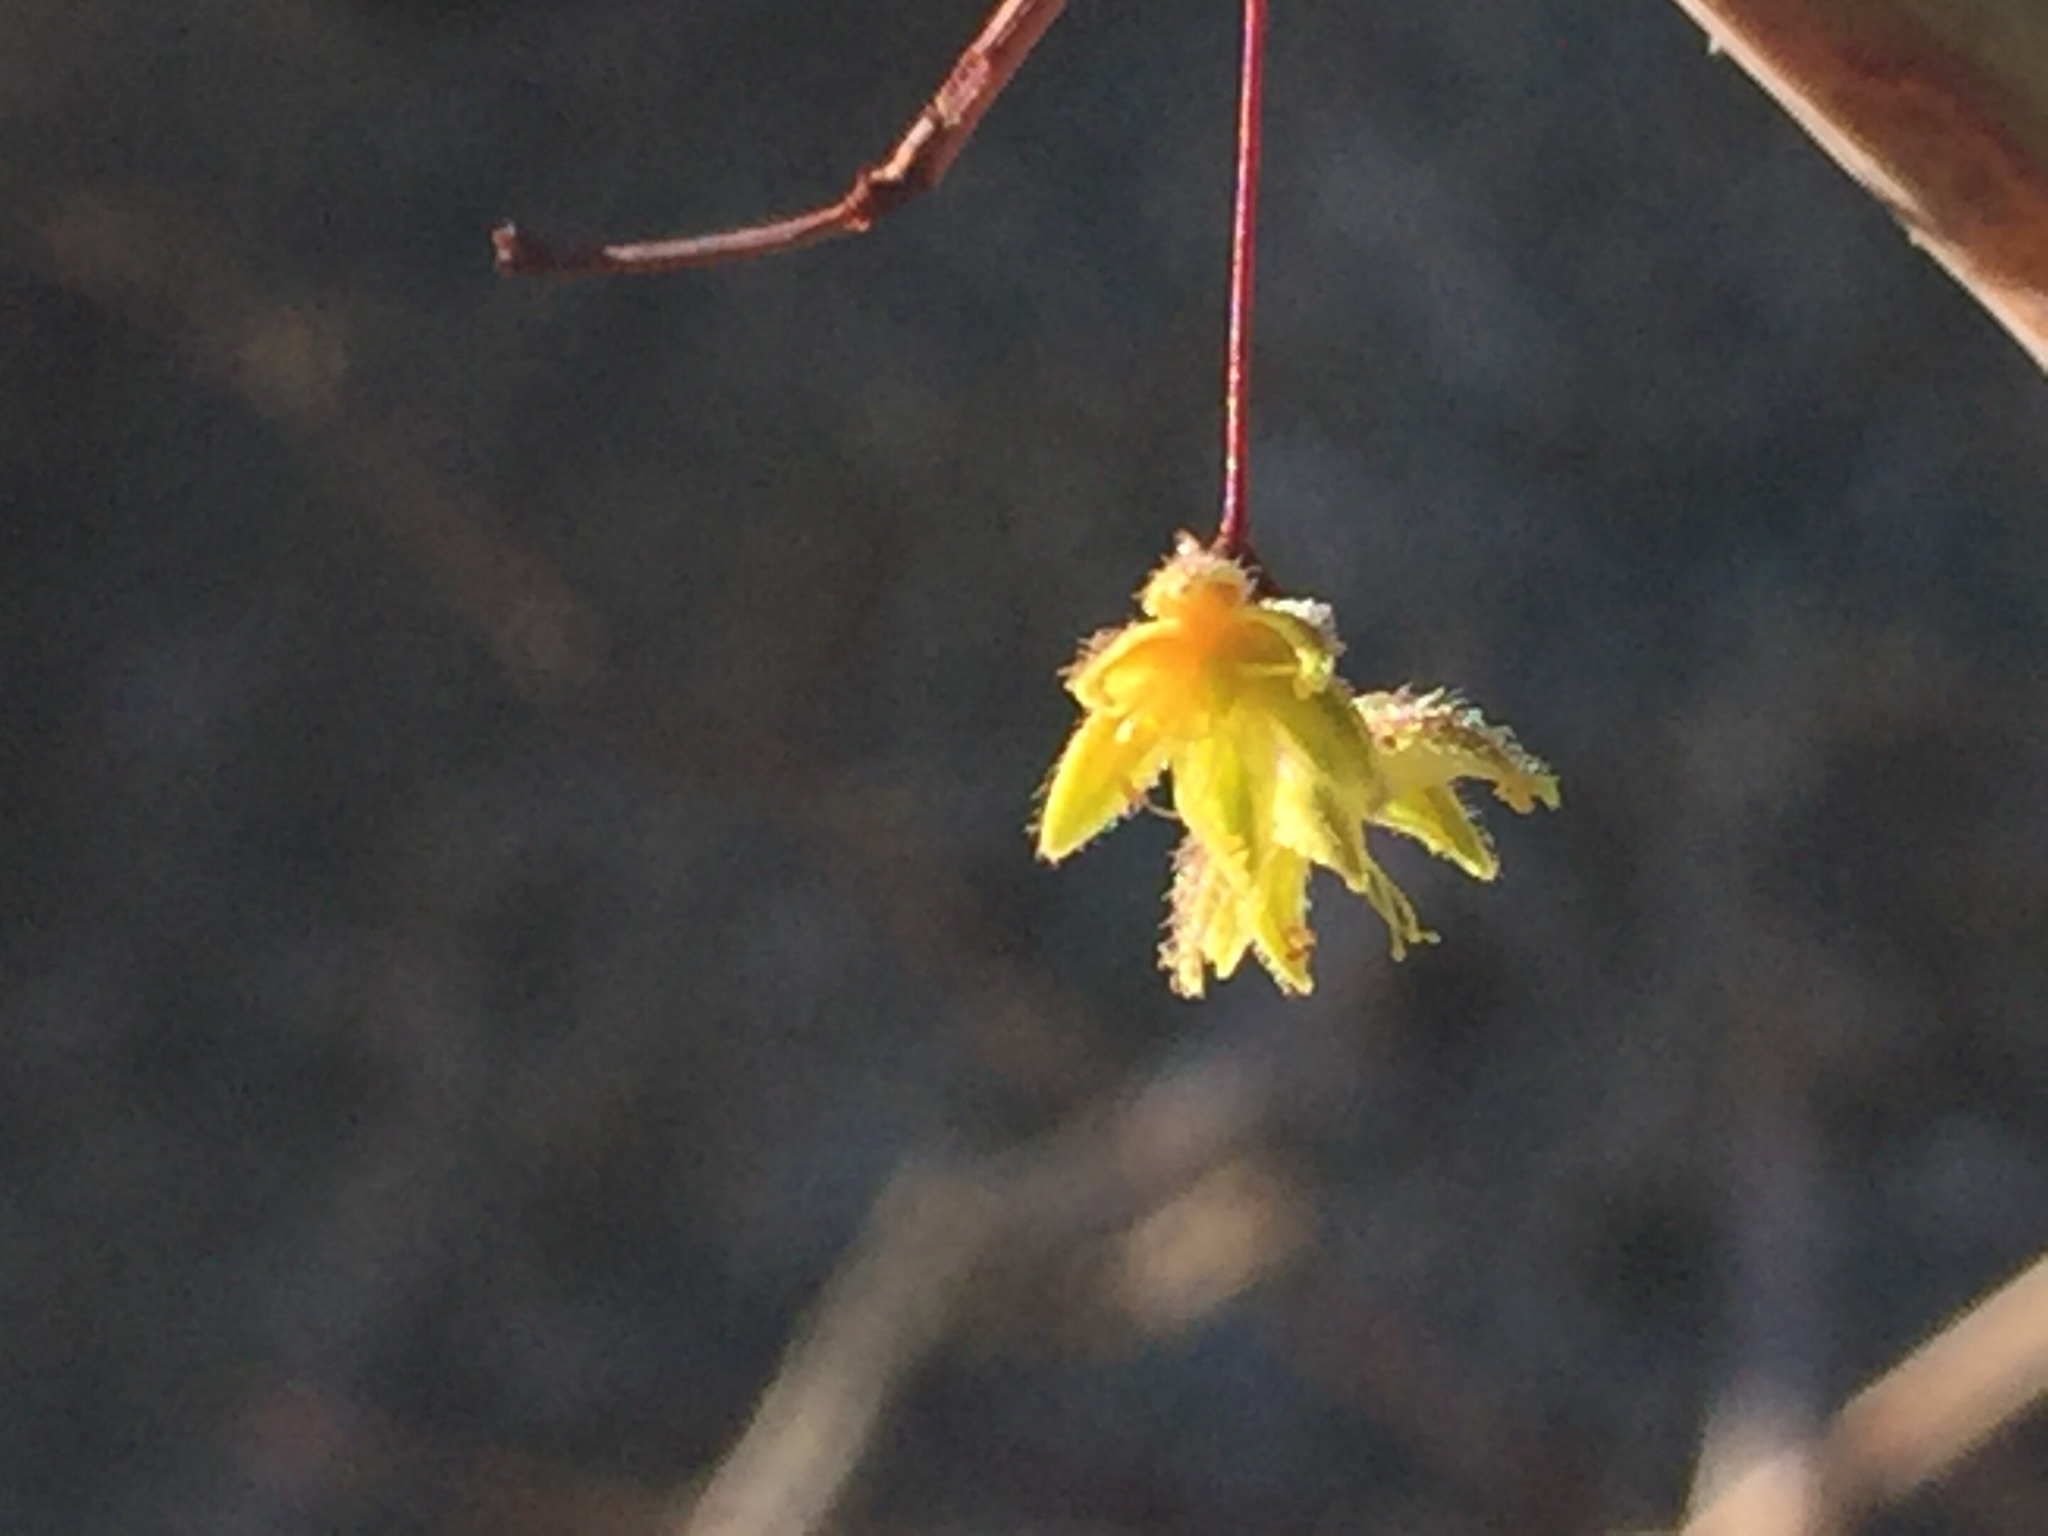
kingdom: Plantae
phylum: Tracheophyta
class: Magnoliopsida
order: Caryophyllales
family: Polygonaceae
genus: Eriogonum
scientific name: Eriogonum inflatum
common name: Desert trumpet
